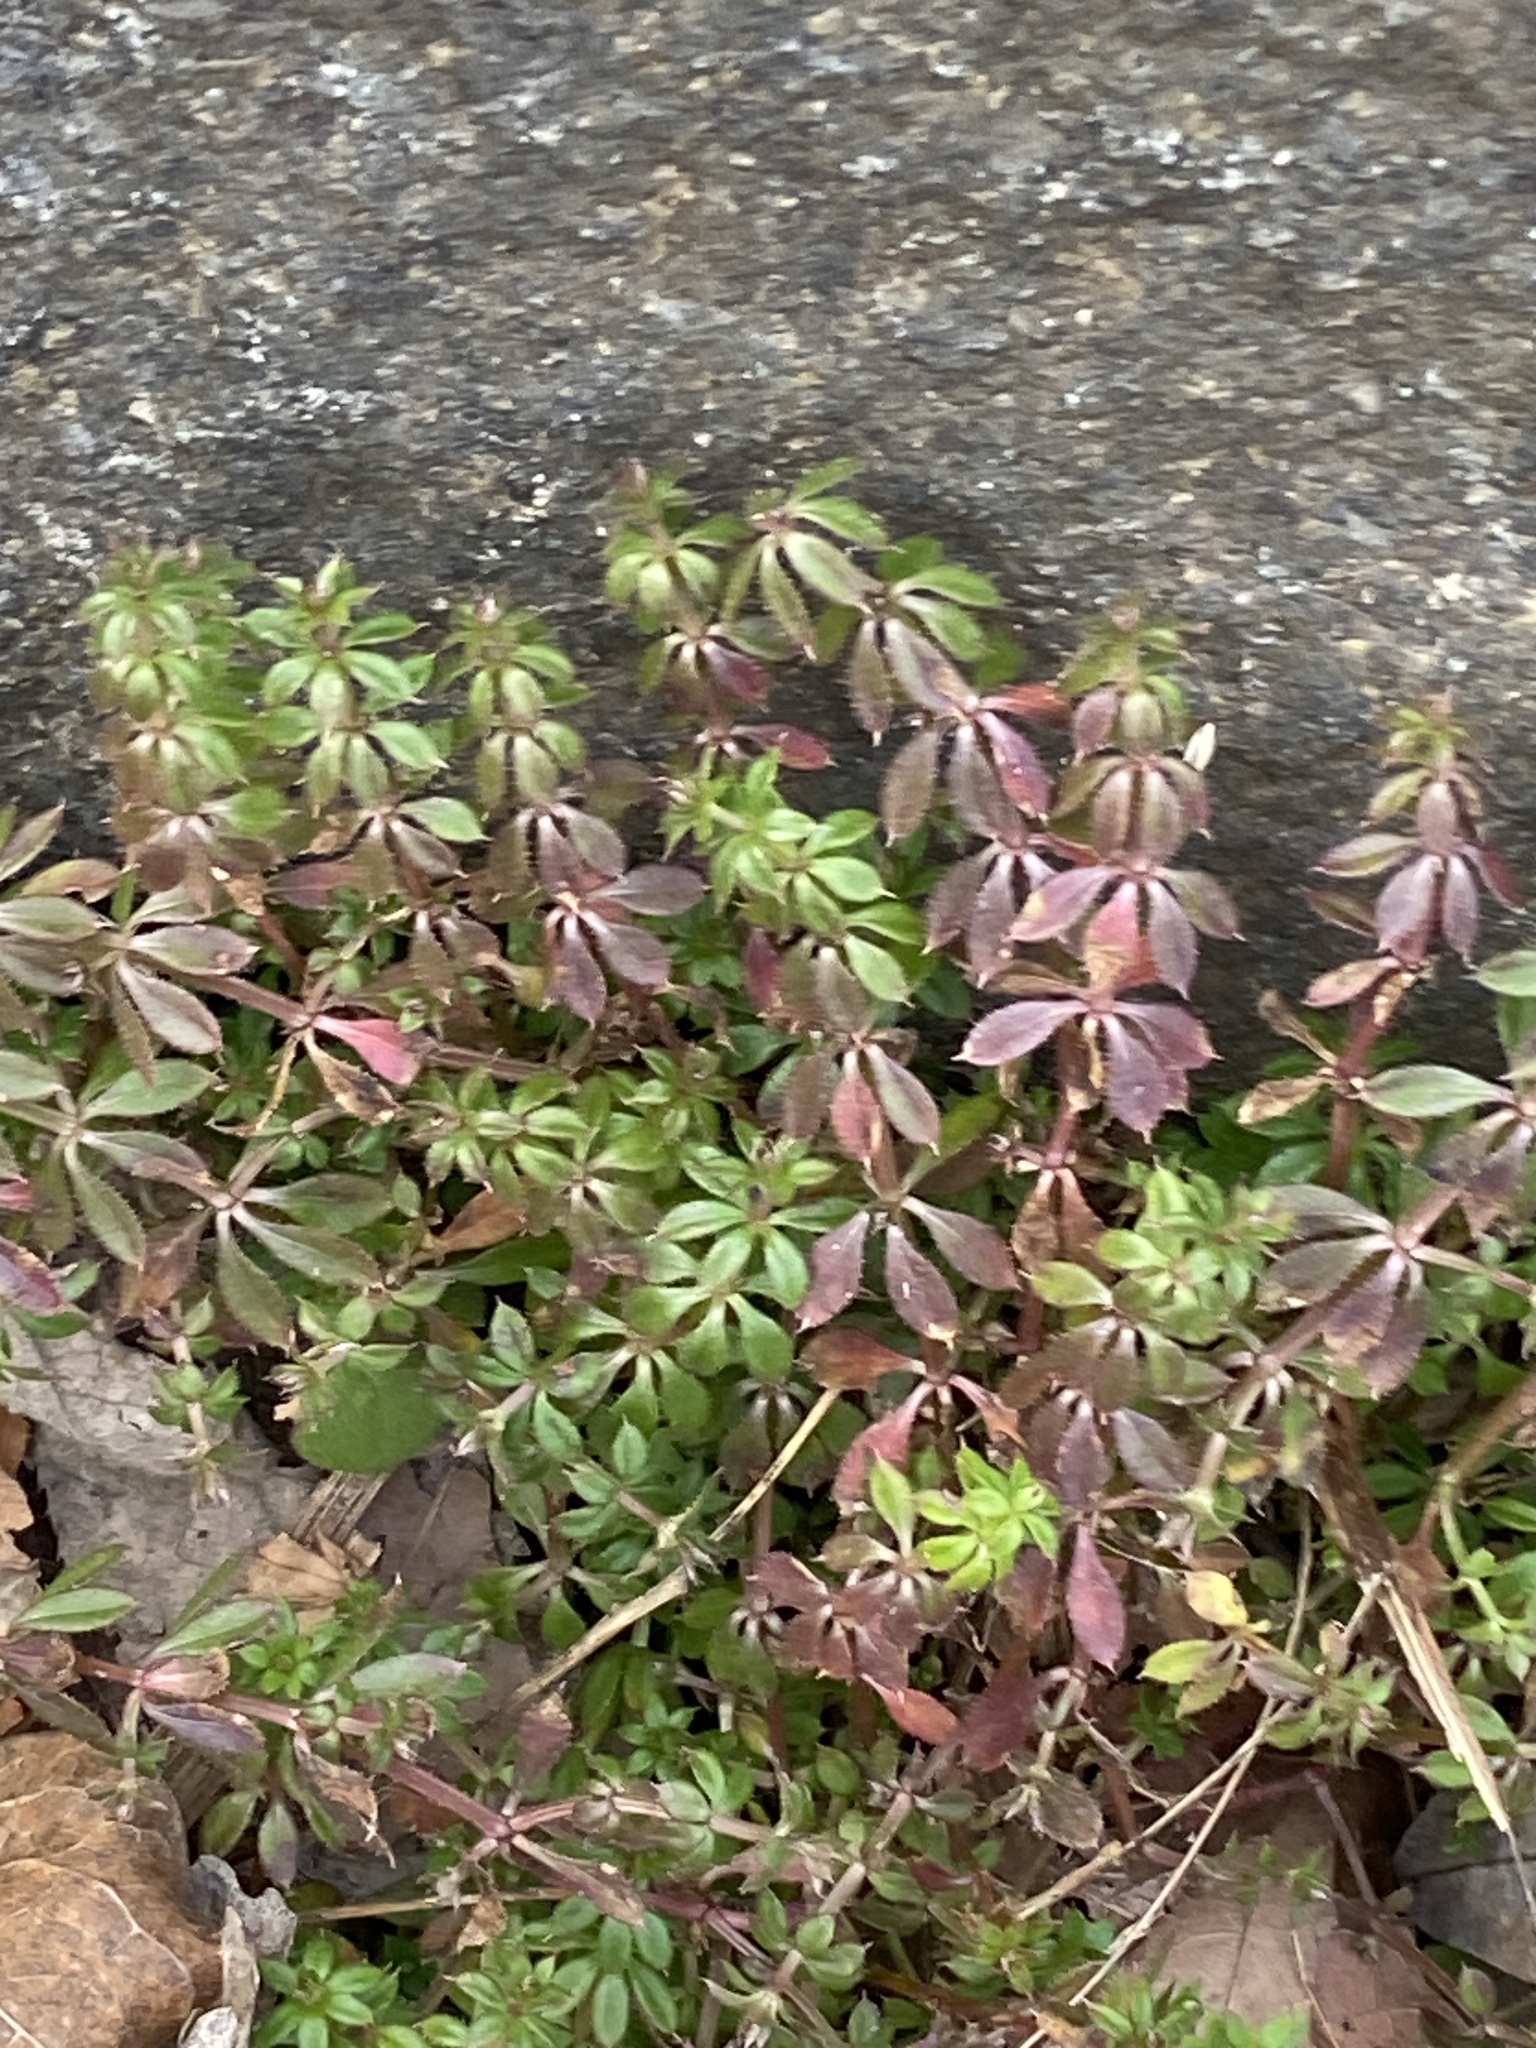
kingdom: Plantae
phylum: Tracheophyta
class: Magnoliopsida
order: Gentianales
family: Rubiaceae
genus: Galium
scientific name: Galium aparine
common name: Cleavers
